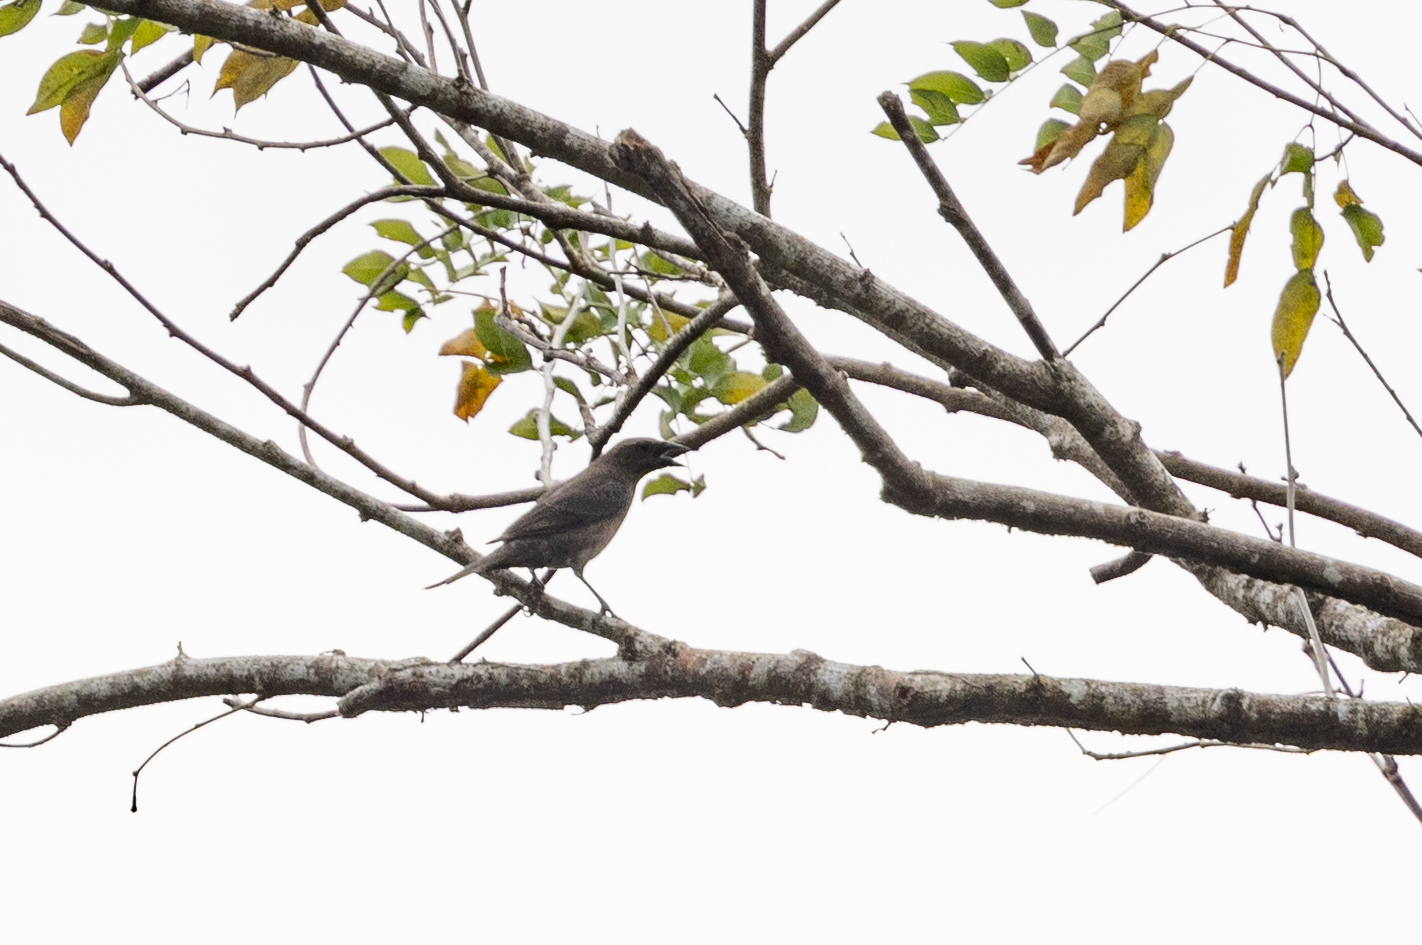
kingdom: Animalia
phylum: Chordata
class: Aves
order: Passeriformes
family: Icteridae
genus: Molothrus
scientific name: Molothrus bonariensis
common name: Shiny cowbird
